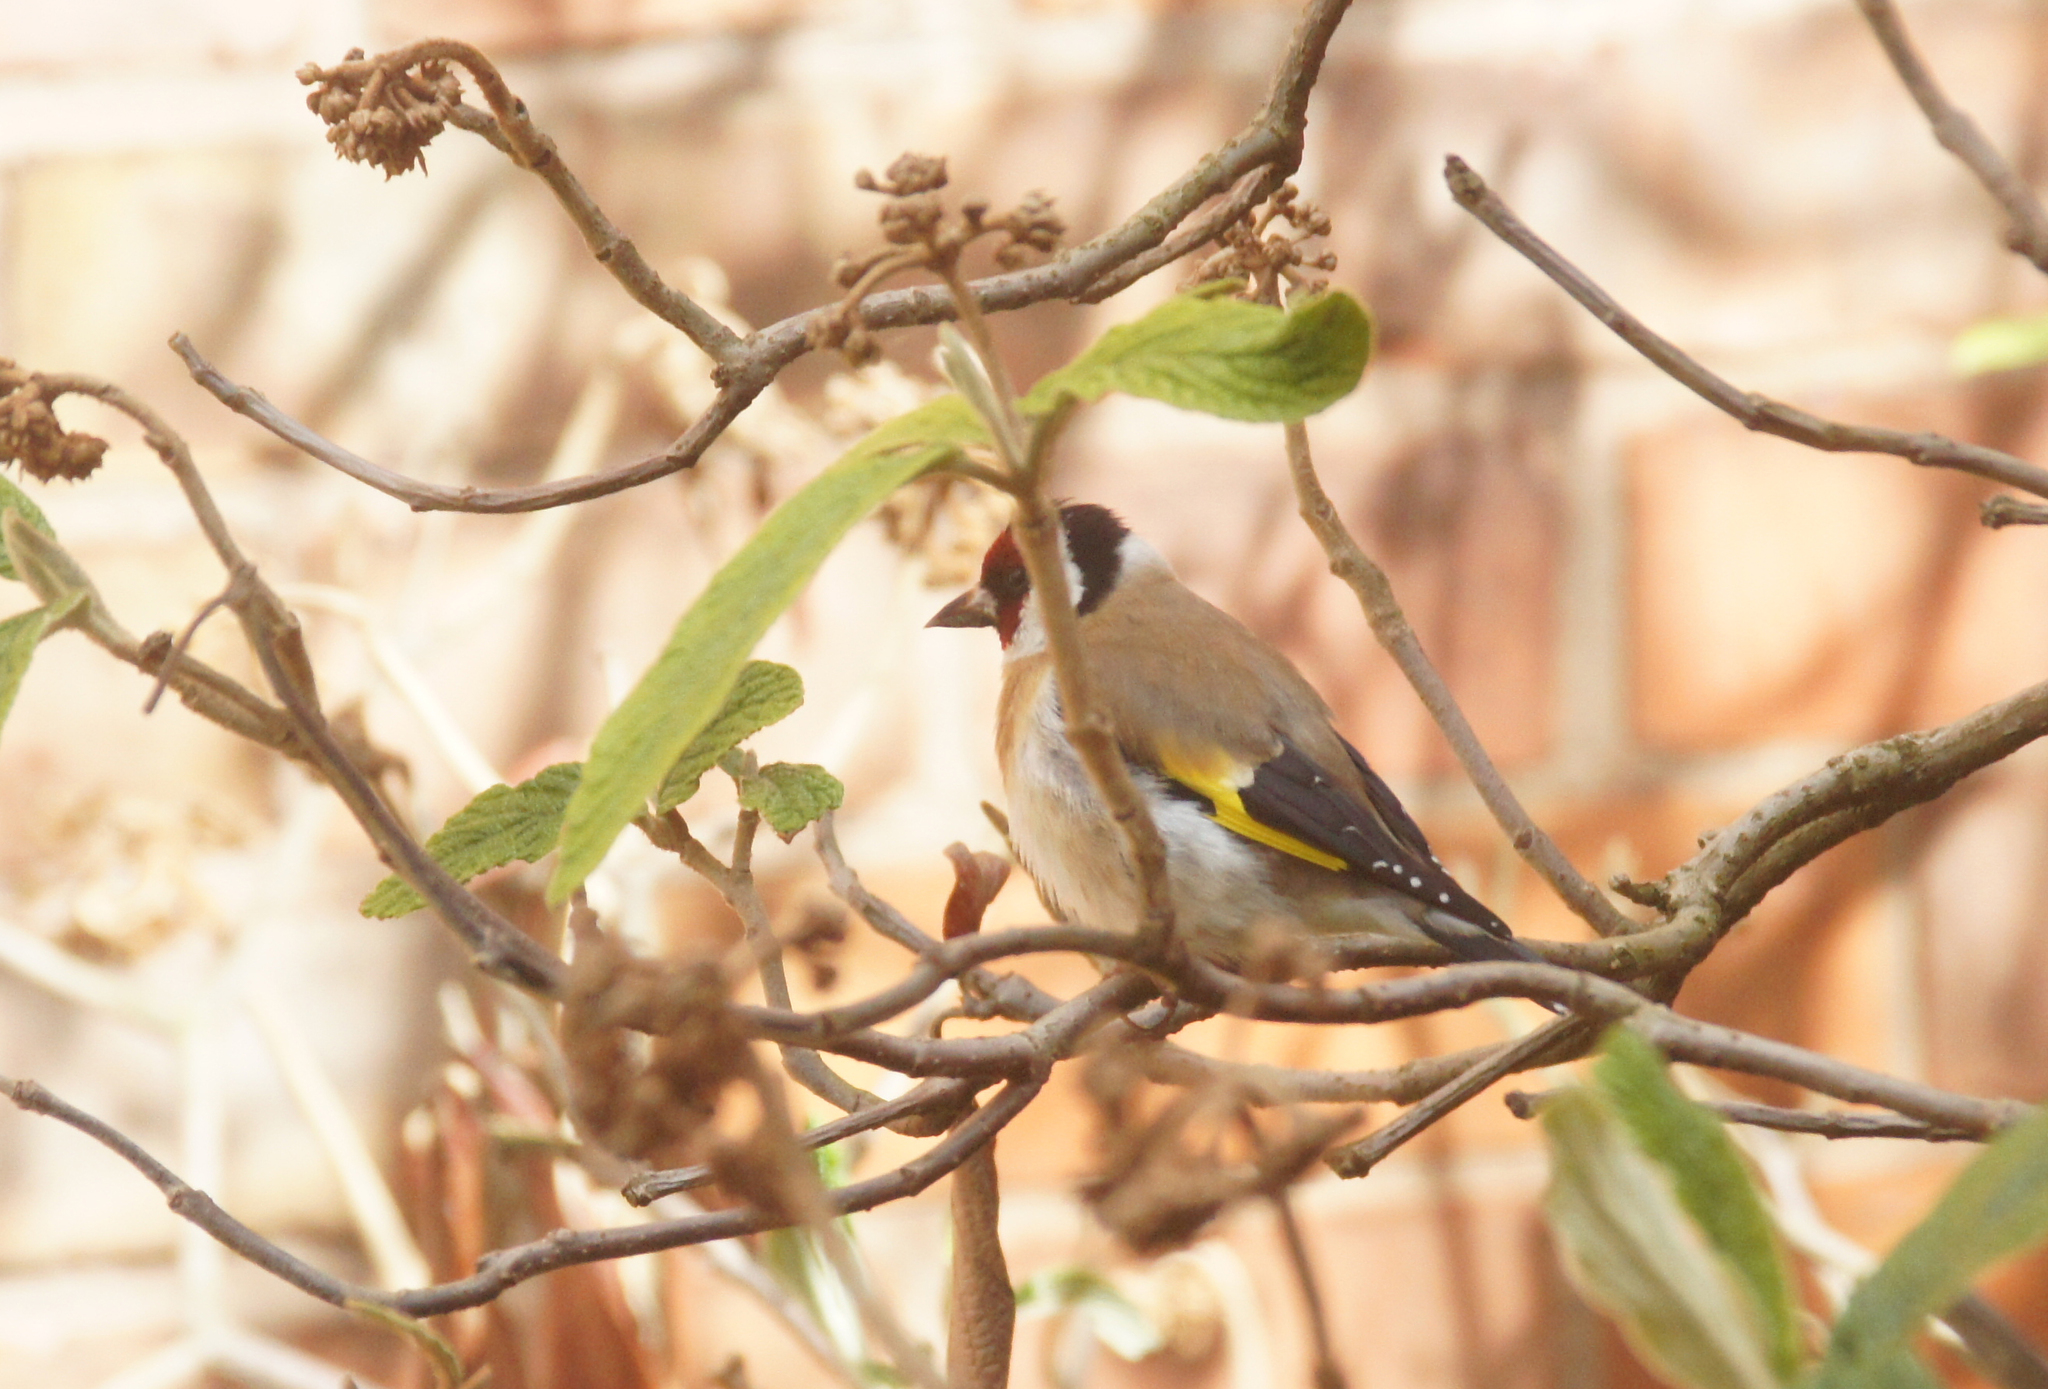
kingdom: Animalia
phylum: Chordata
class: Aves
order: Passeriformes
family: Fringillidae
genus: Carduelis
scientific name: Carduelis carduelis
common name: European goldfinch
